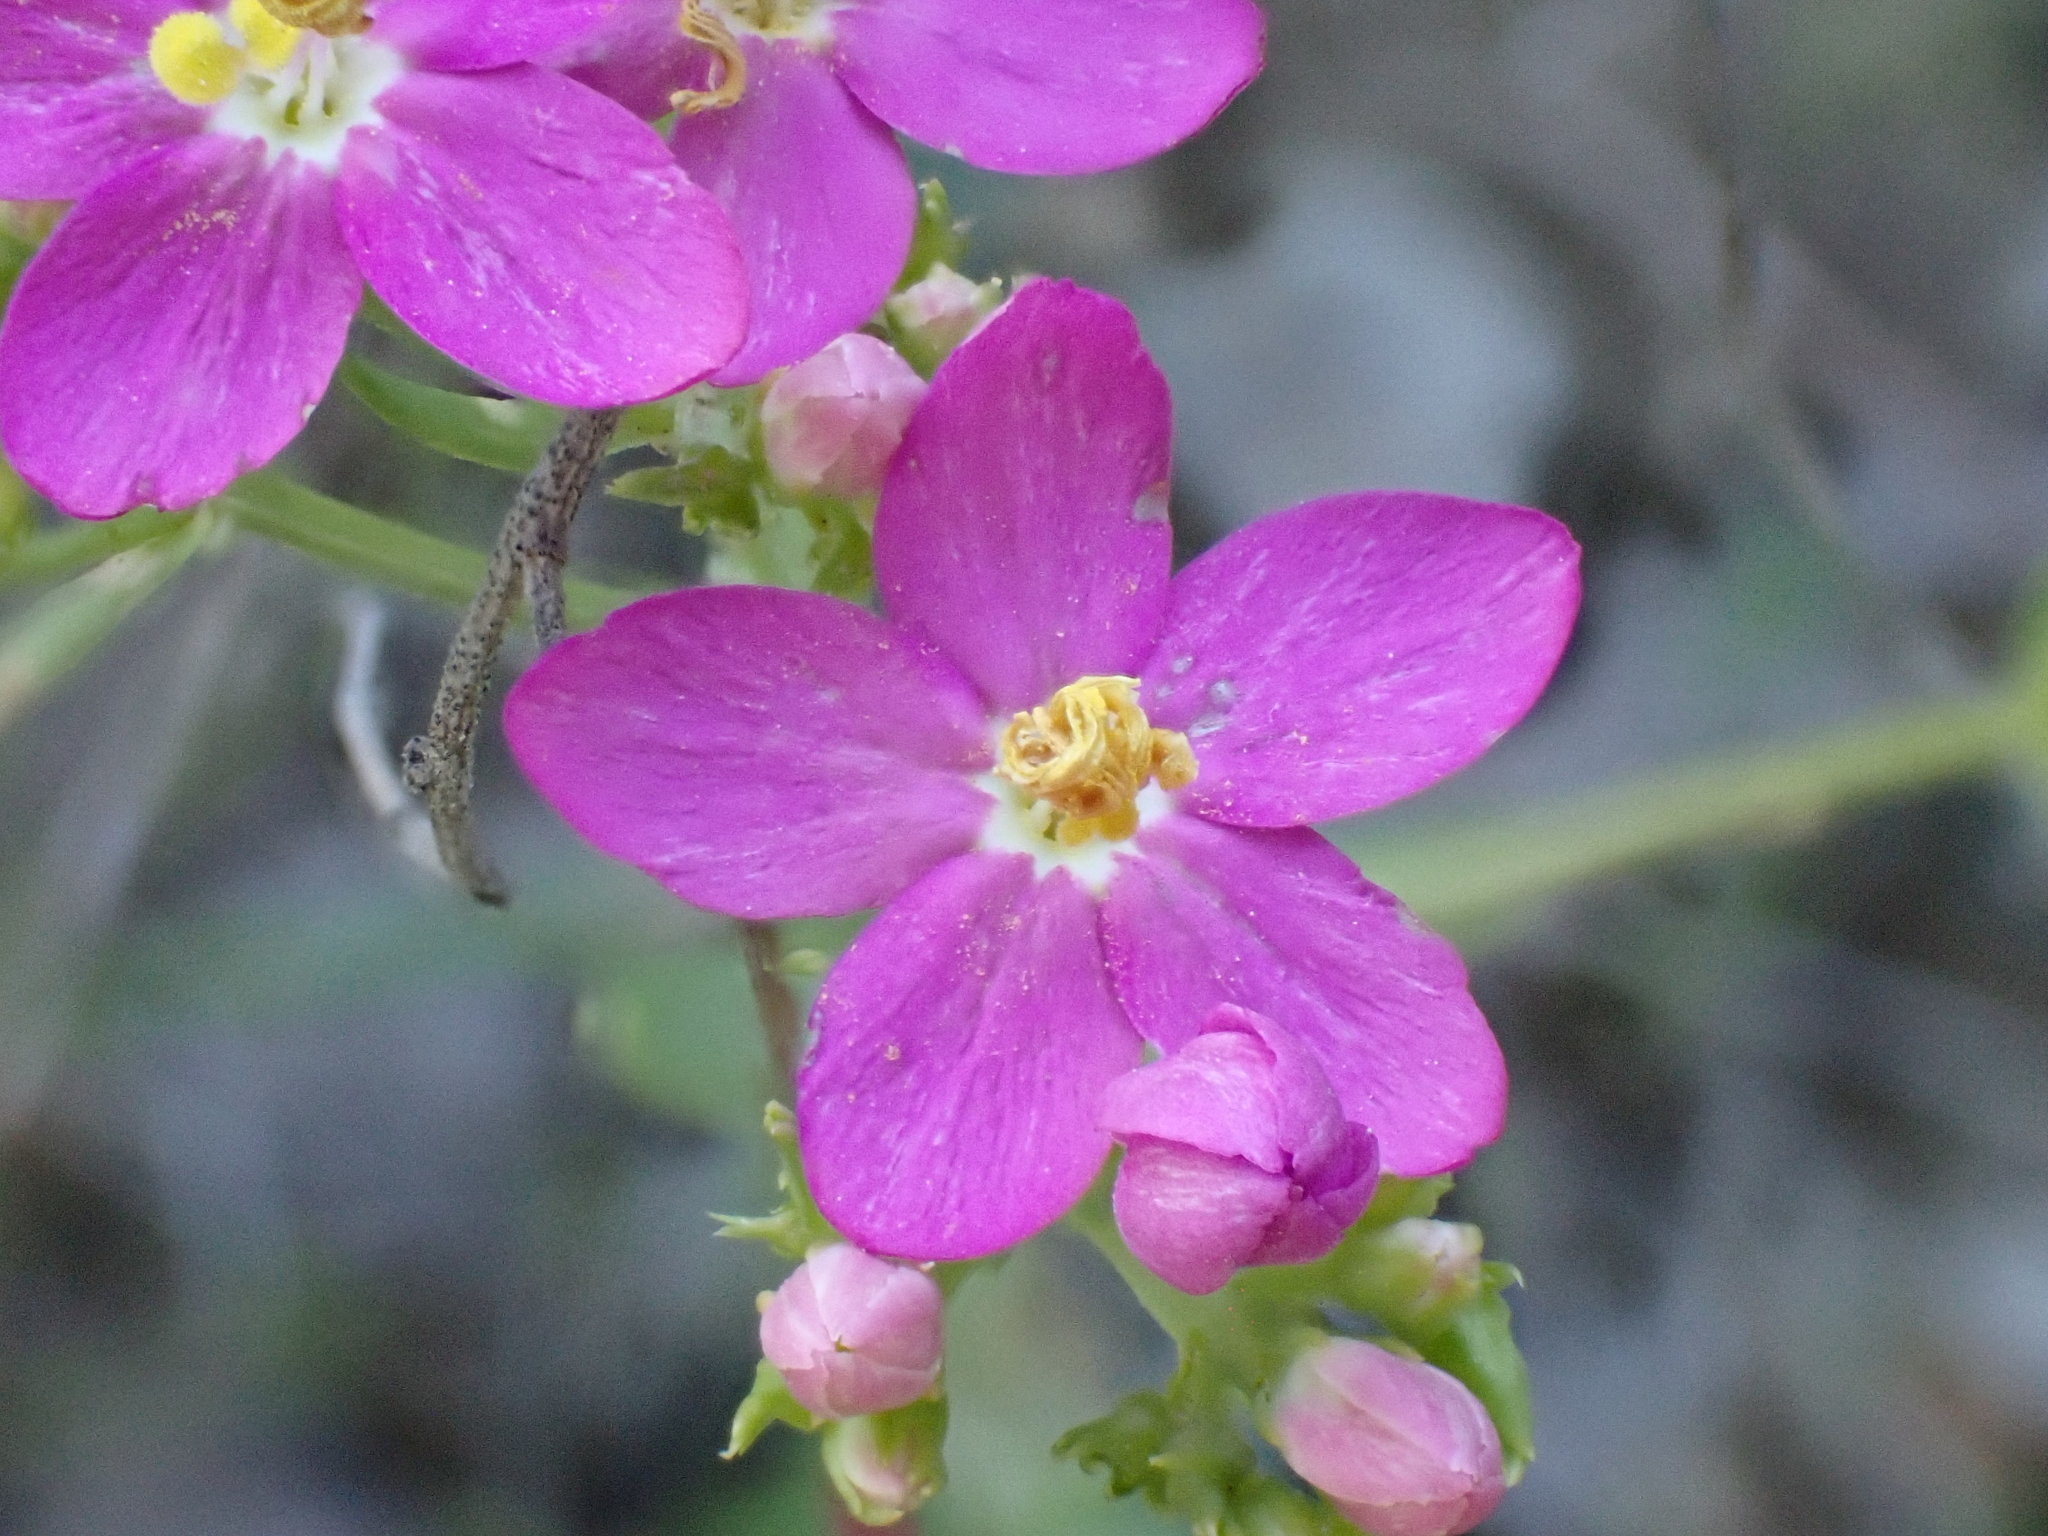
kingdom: Plantae
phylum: Tracheophyta
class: Magnoliopsida
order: Gentianales
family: Gentianaceae
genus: Centaurium
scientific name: Centaurium erythraea
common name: Common centaury
